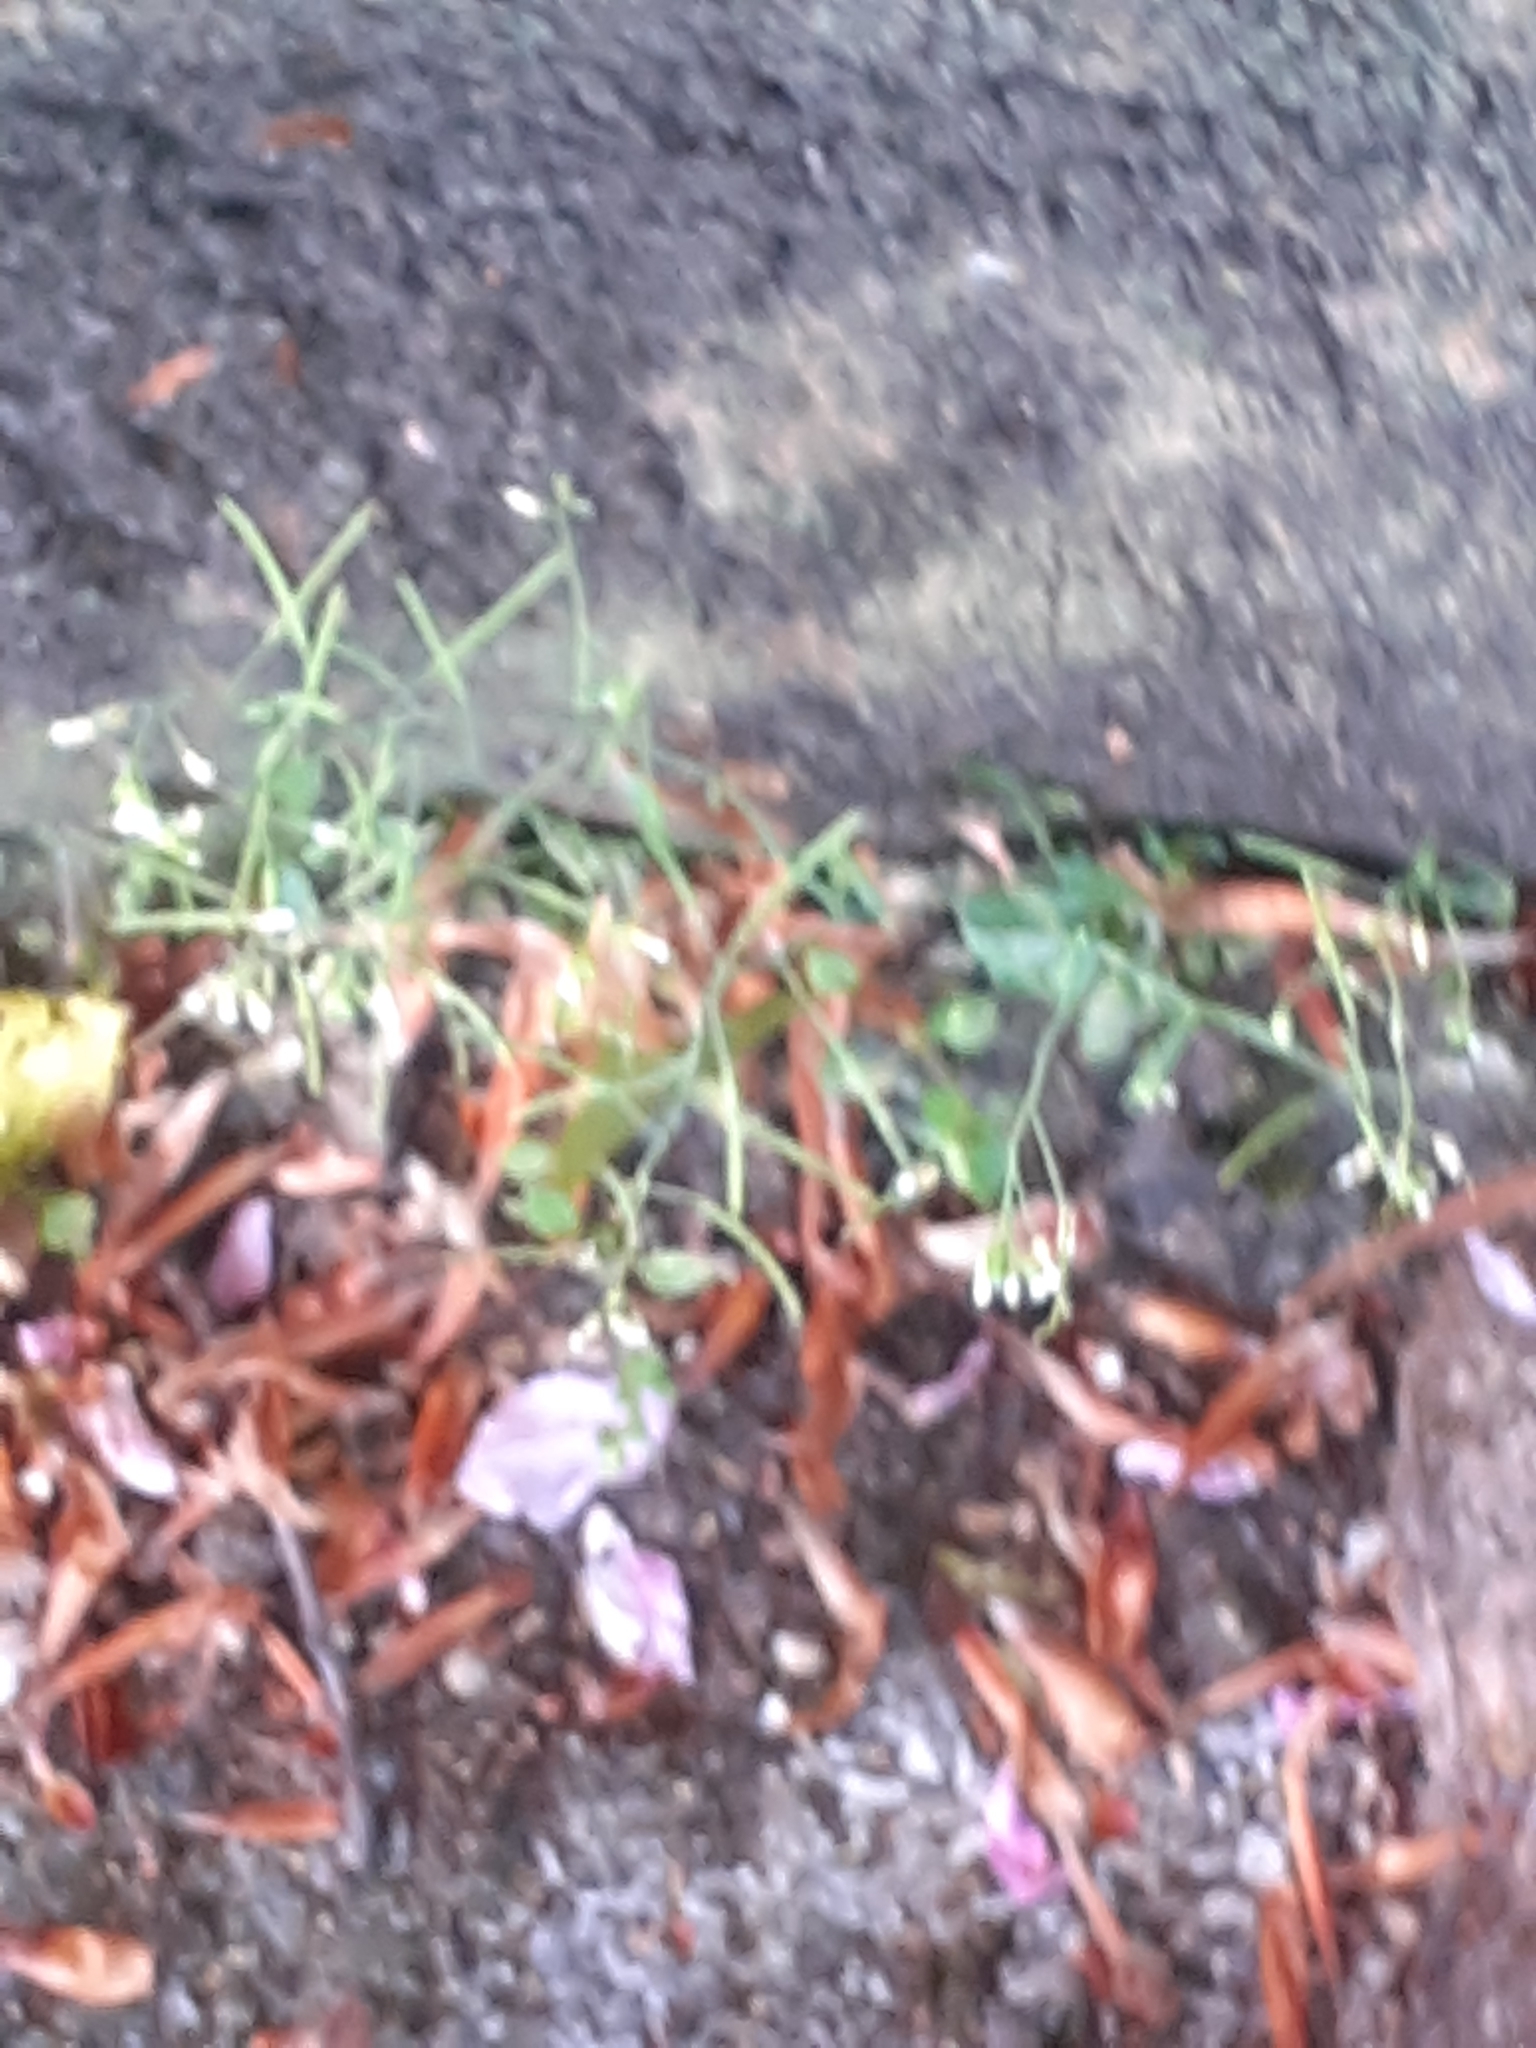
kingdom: Plantae
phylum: Tracheophyta
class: Magnoliopsida
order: Brassicales
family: Brassicaceae
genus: Arabidopsis
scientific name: Arabidopsis thaliana
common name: Thale cress
